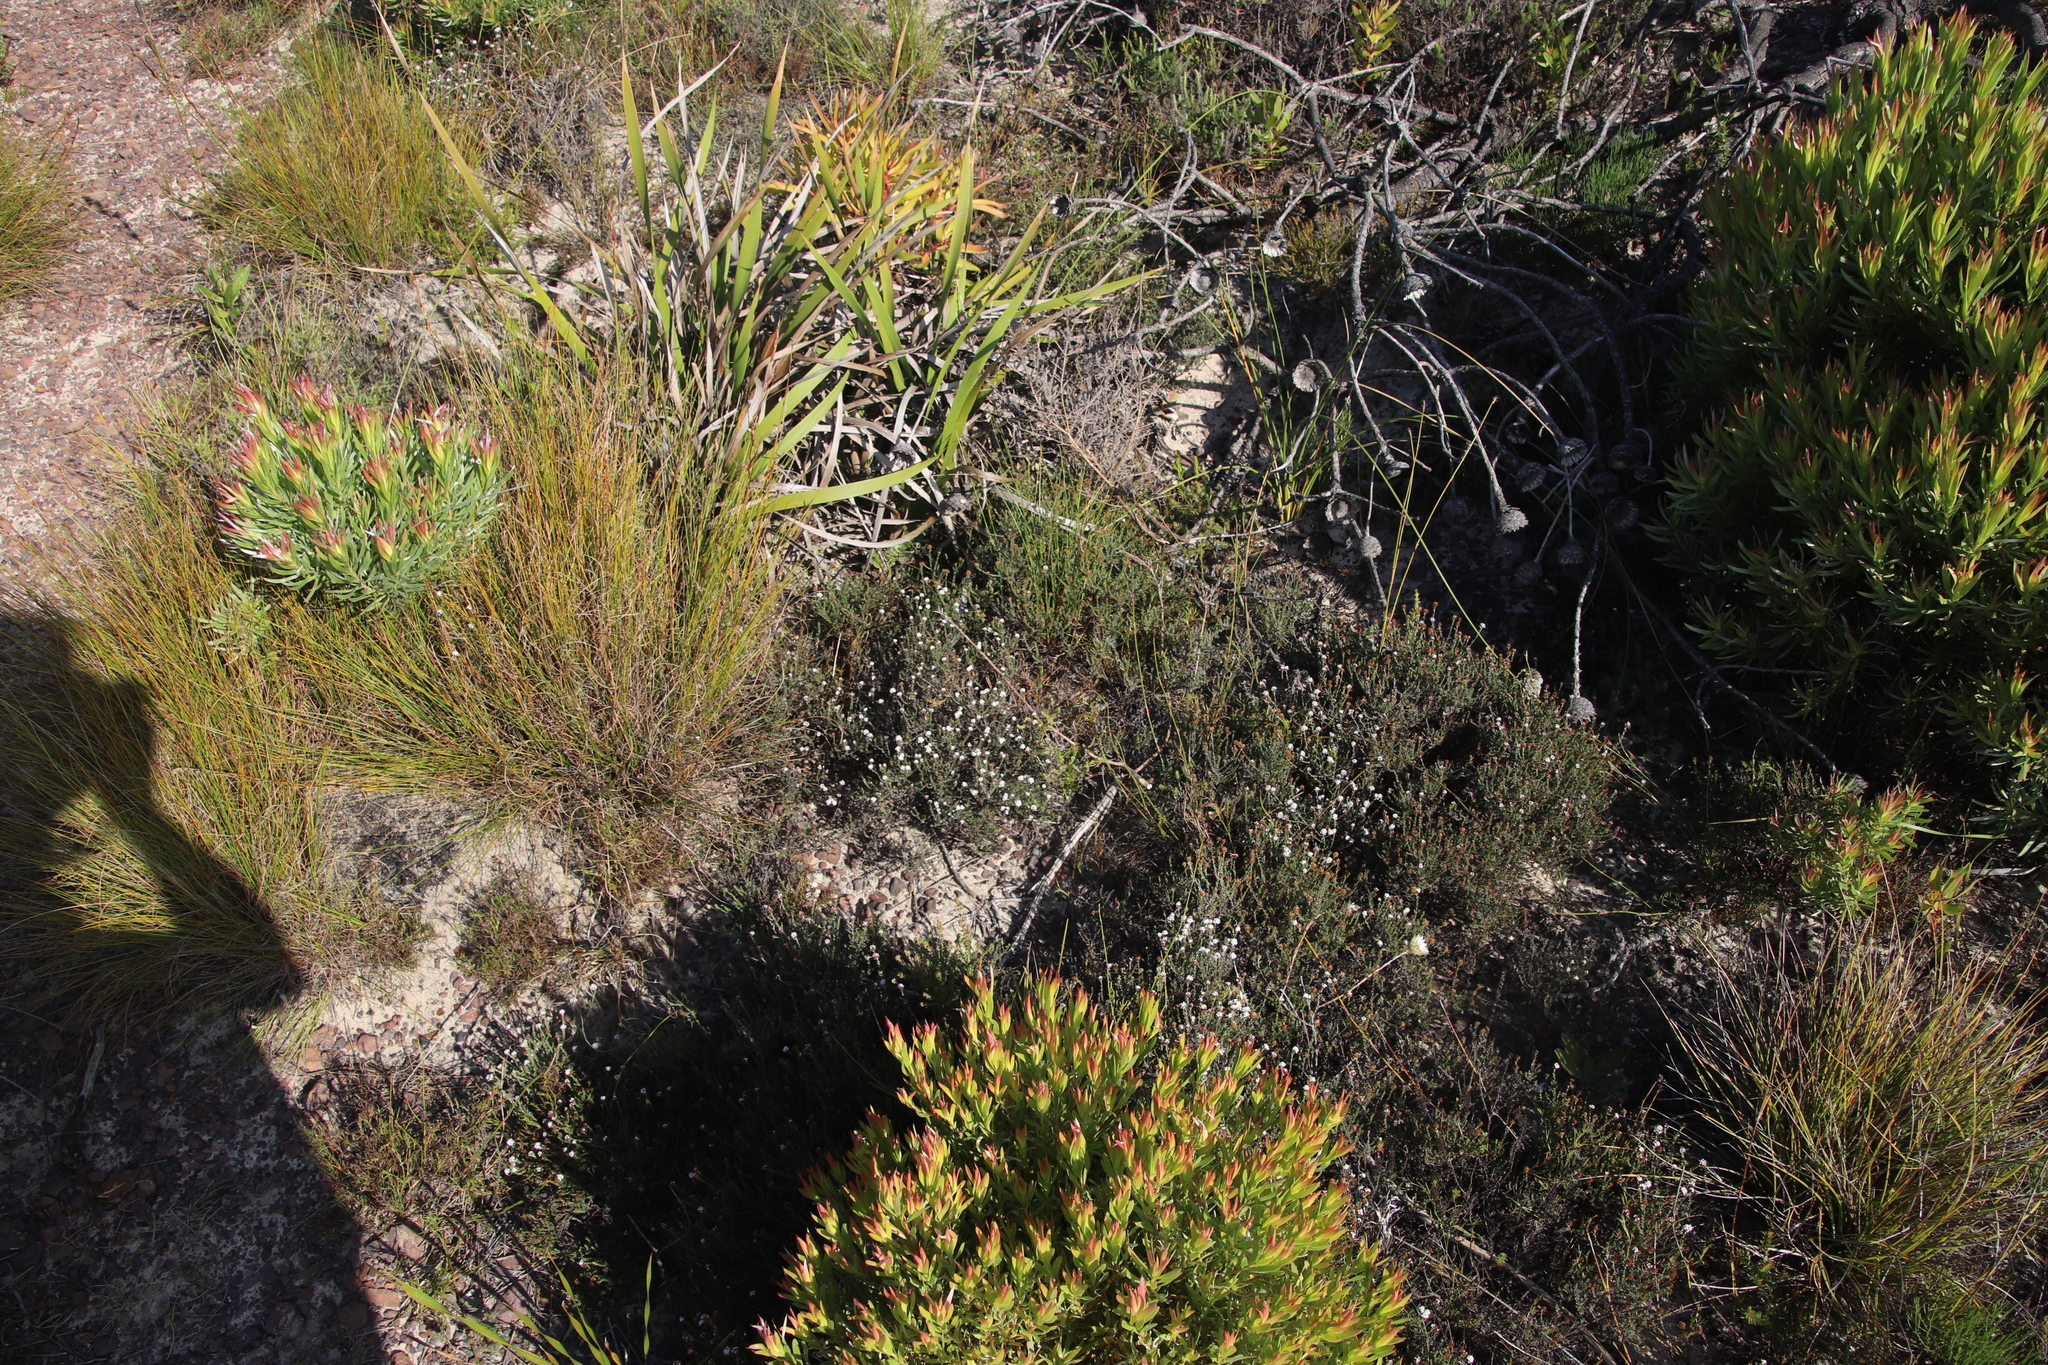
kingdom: Plantae
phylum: Tracheophyta
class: Magnoliopsida
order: Asterales
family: Asteraceae
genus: Stoebe
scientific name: Stoebe capitata
